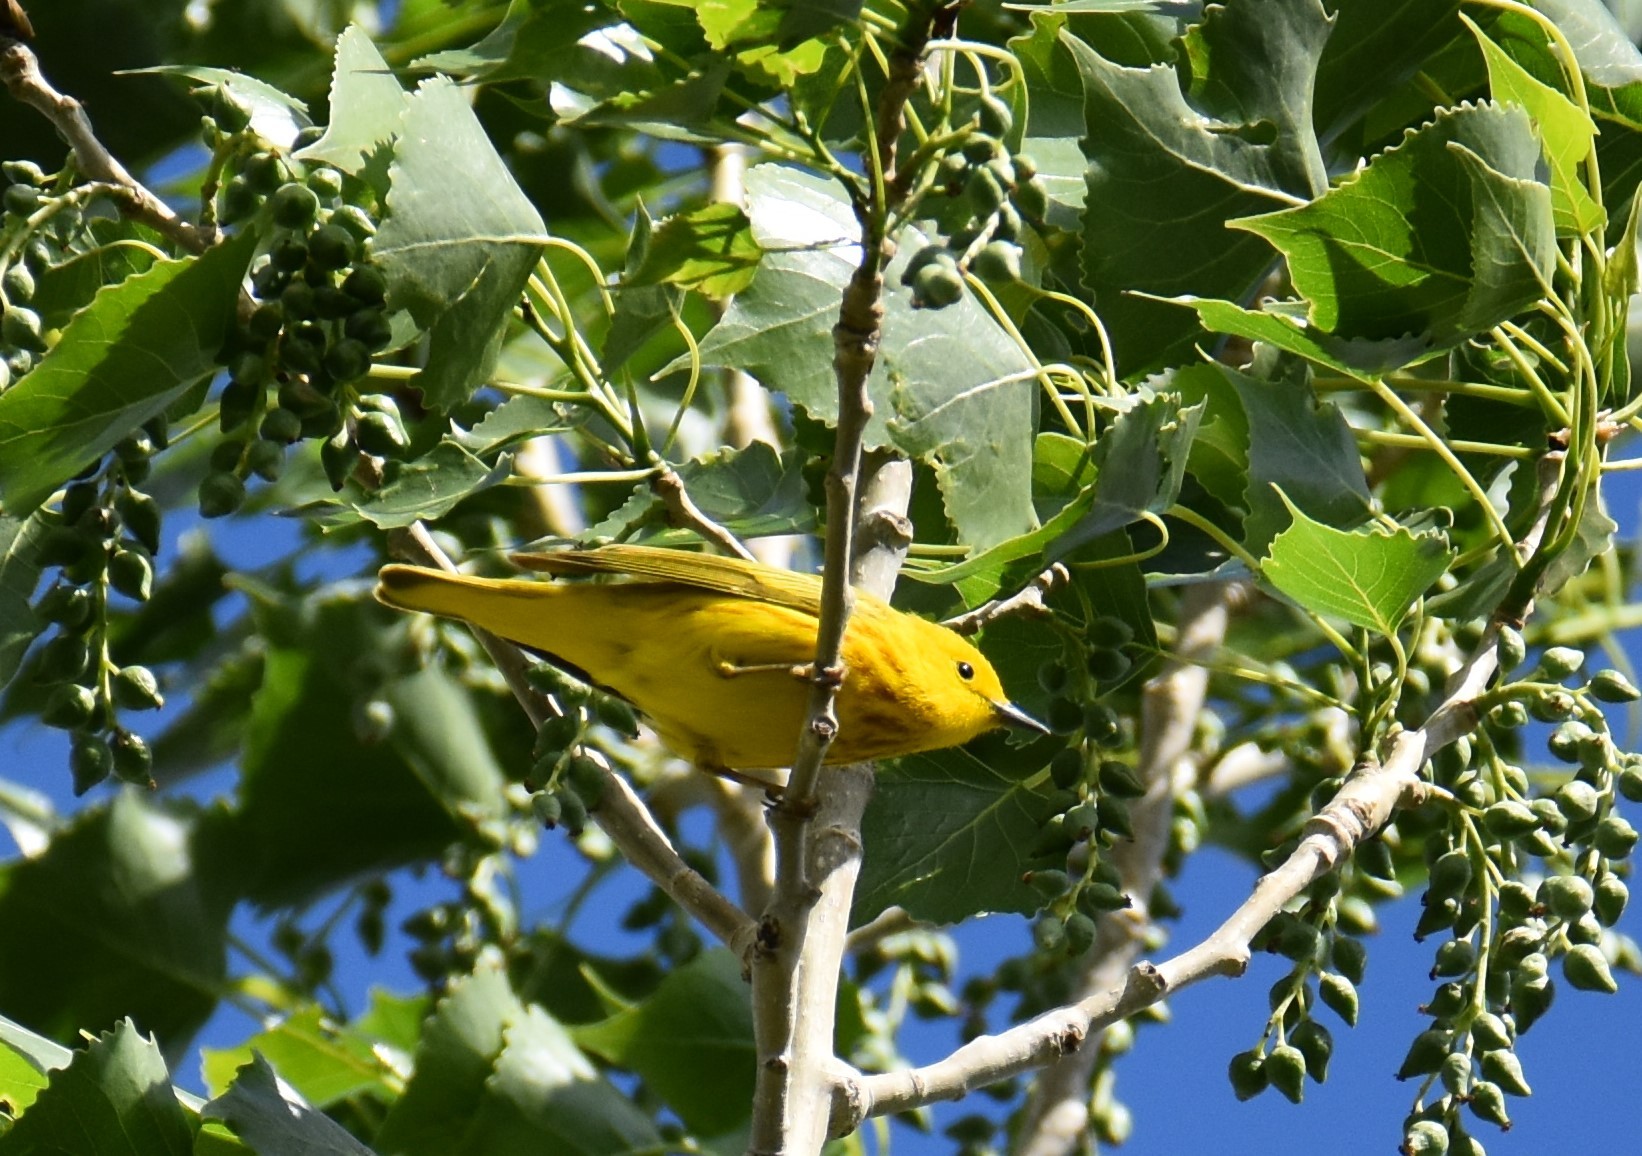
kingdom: Animalia
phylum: Chordata
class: Aves
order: Passeriformes
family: Parulidae
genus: Setophaga
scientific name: Setophaga petechia
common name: Yellow warbler
